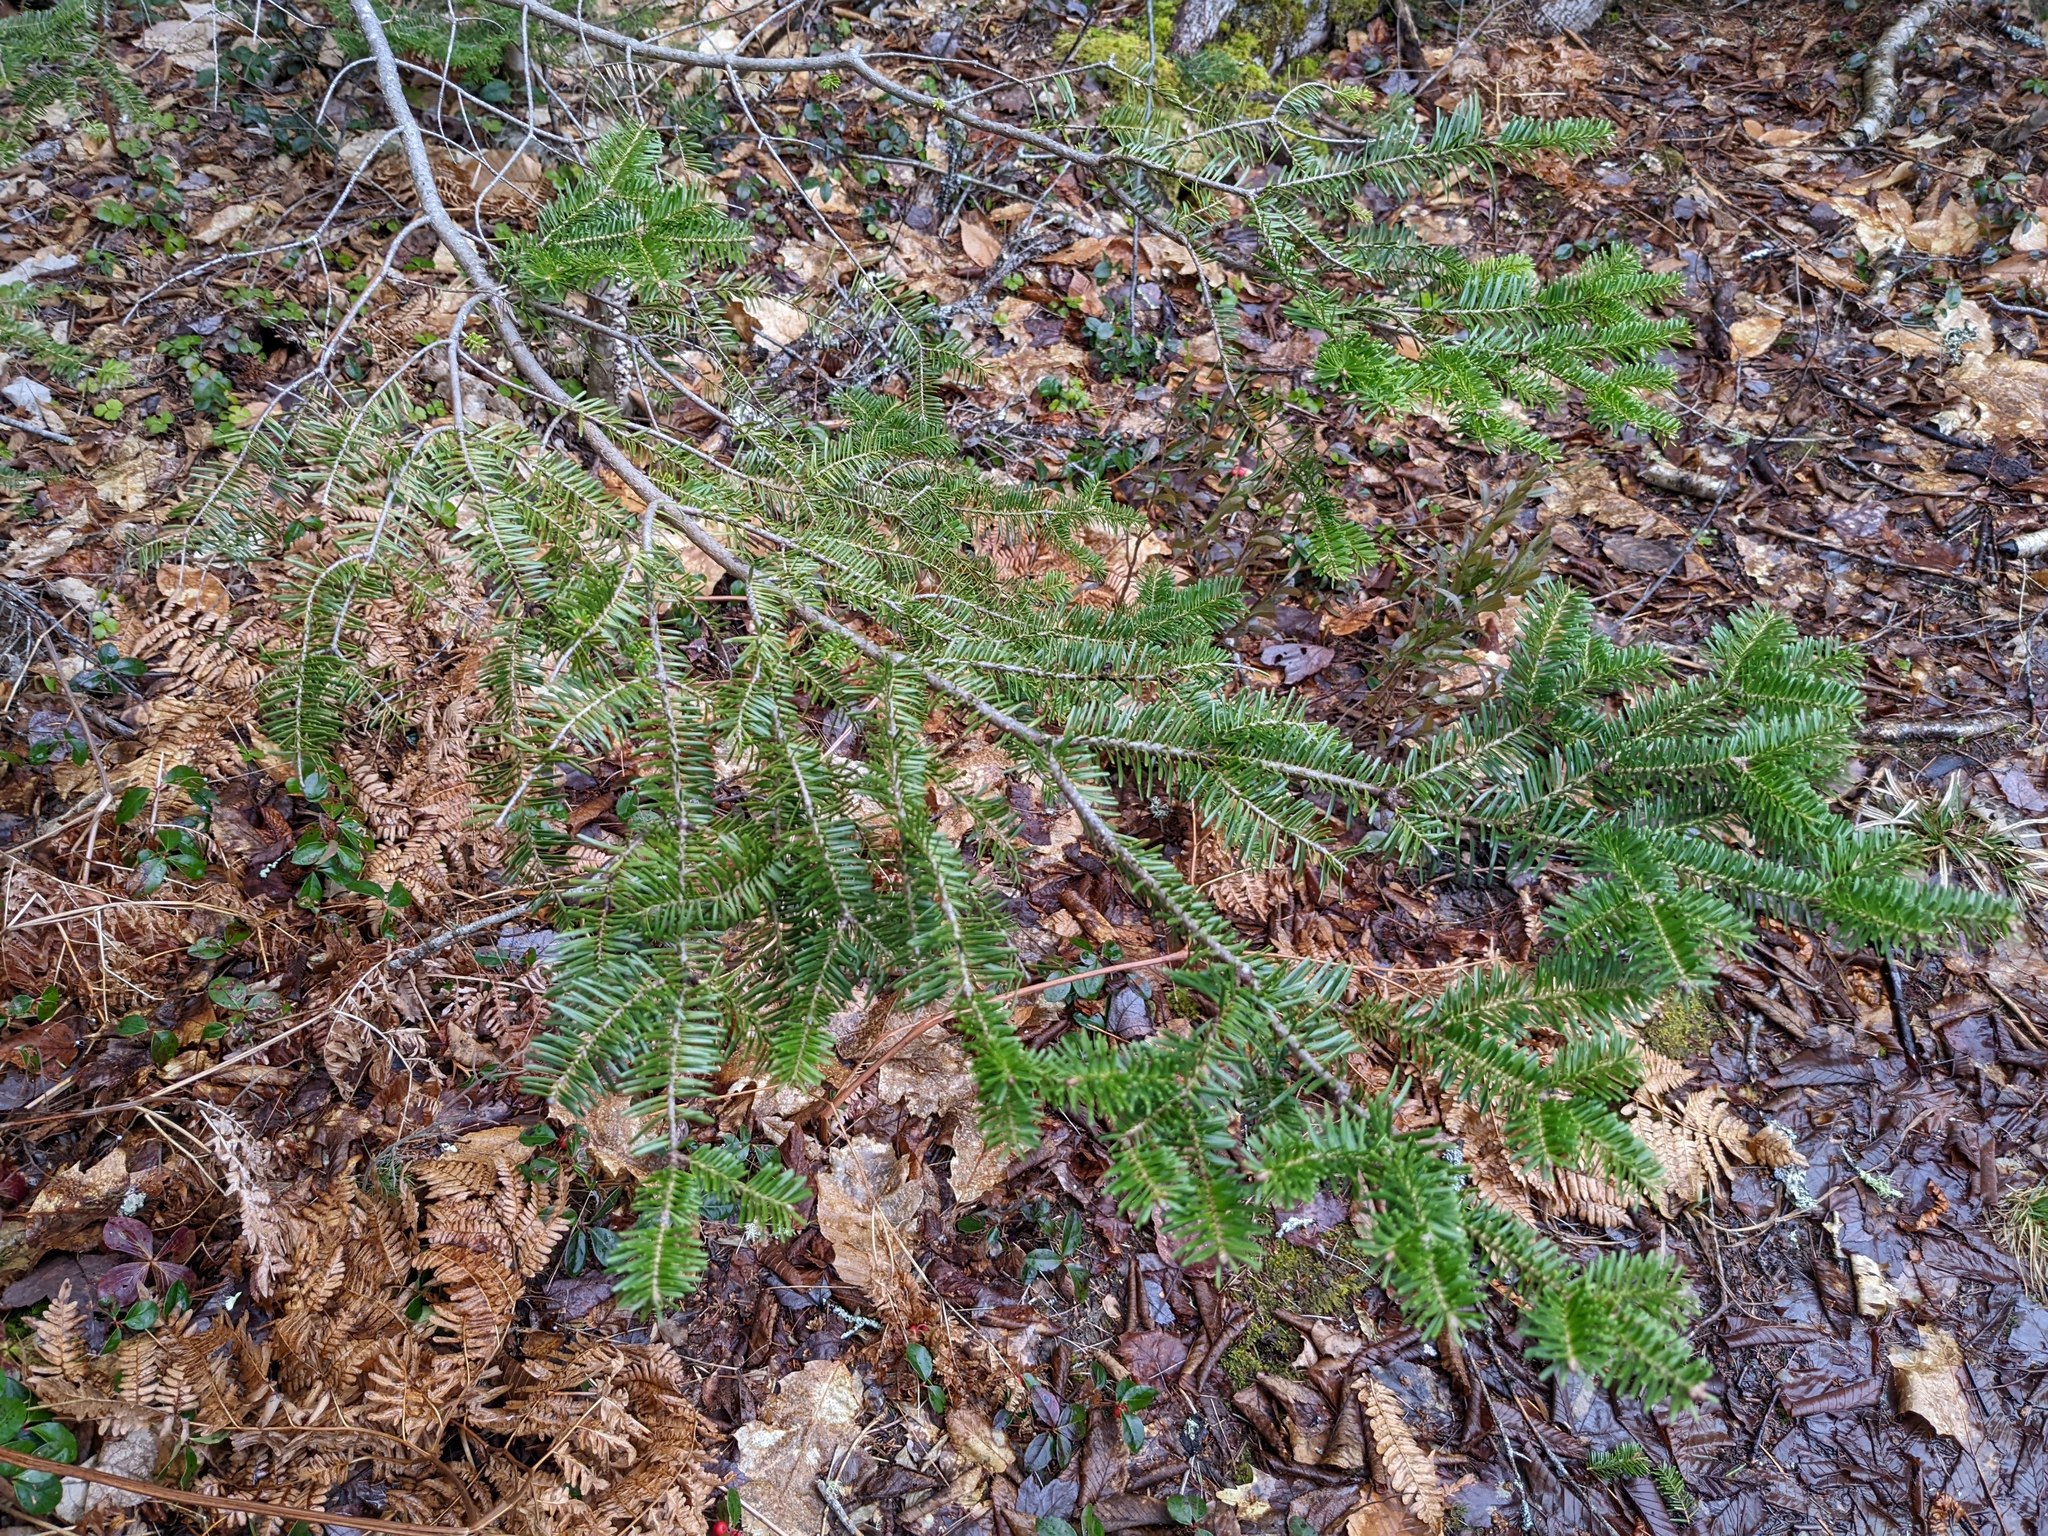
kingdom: Plantae
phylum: Tracheophyta
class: Pinopsida
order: Pinales
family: Pinaceae
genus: Abies
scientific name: Abies balsamea
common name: Balsam fir
